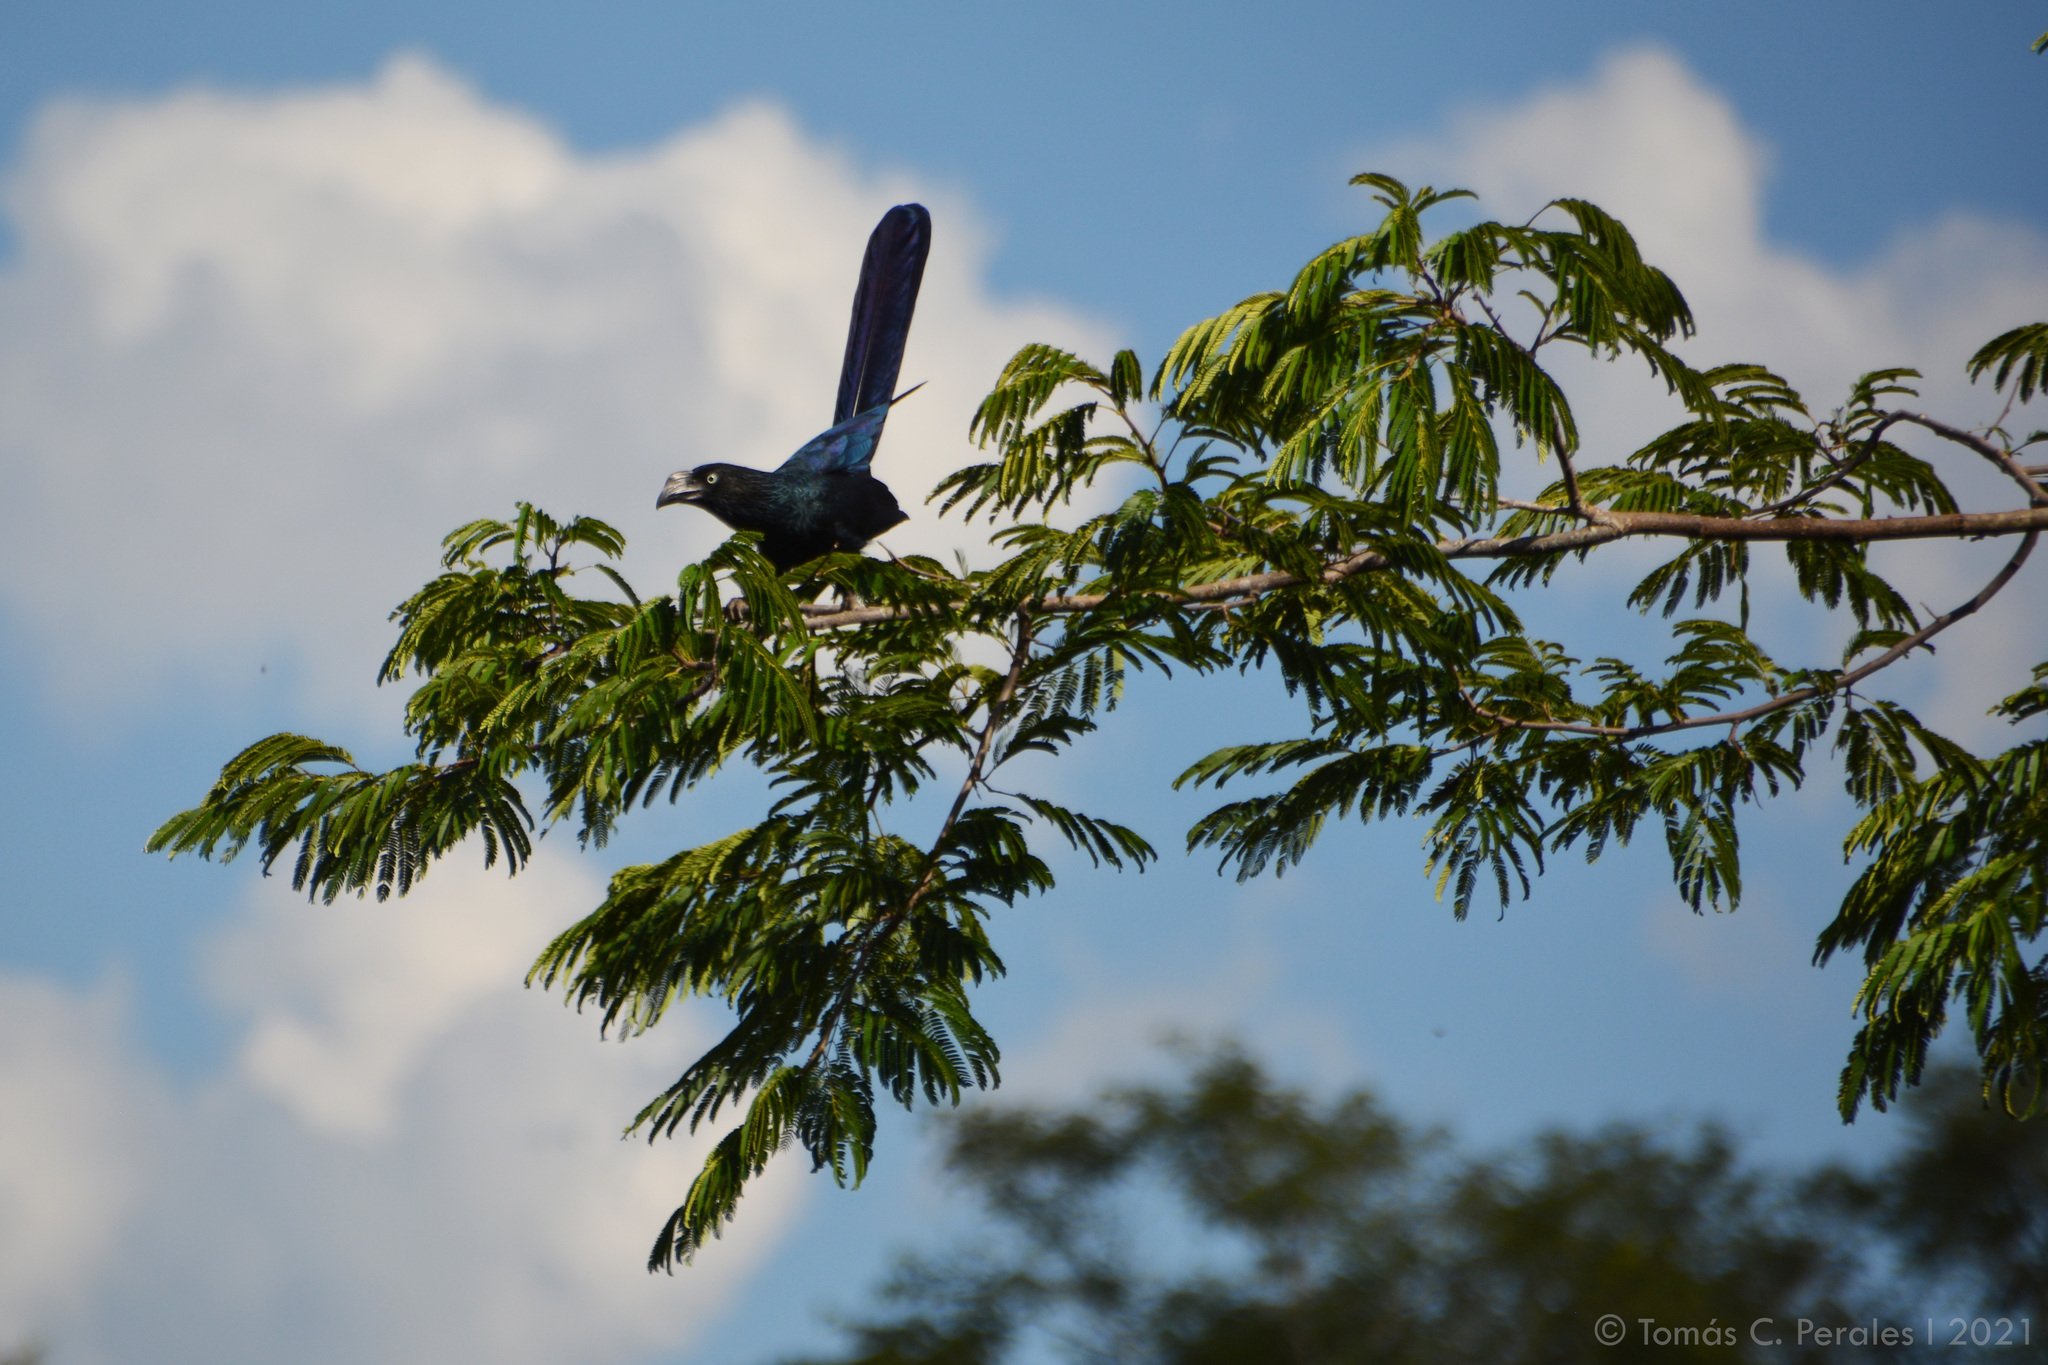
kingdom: Animalia
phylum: Chordata
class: Aves
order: Cuculiformes
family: Cuculidae
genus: Crotophaga
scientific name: Crotophaga major
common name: Greater ani
